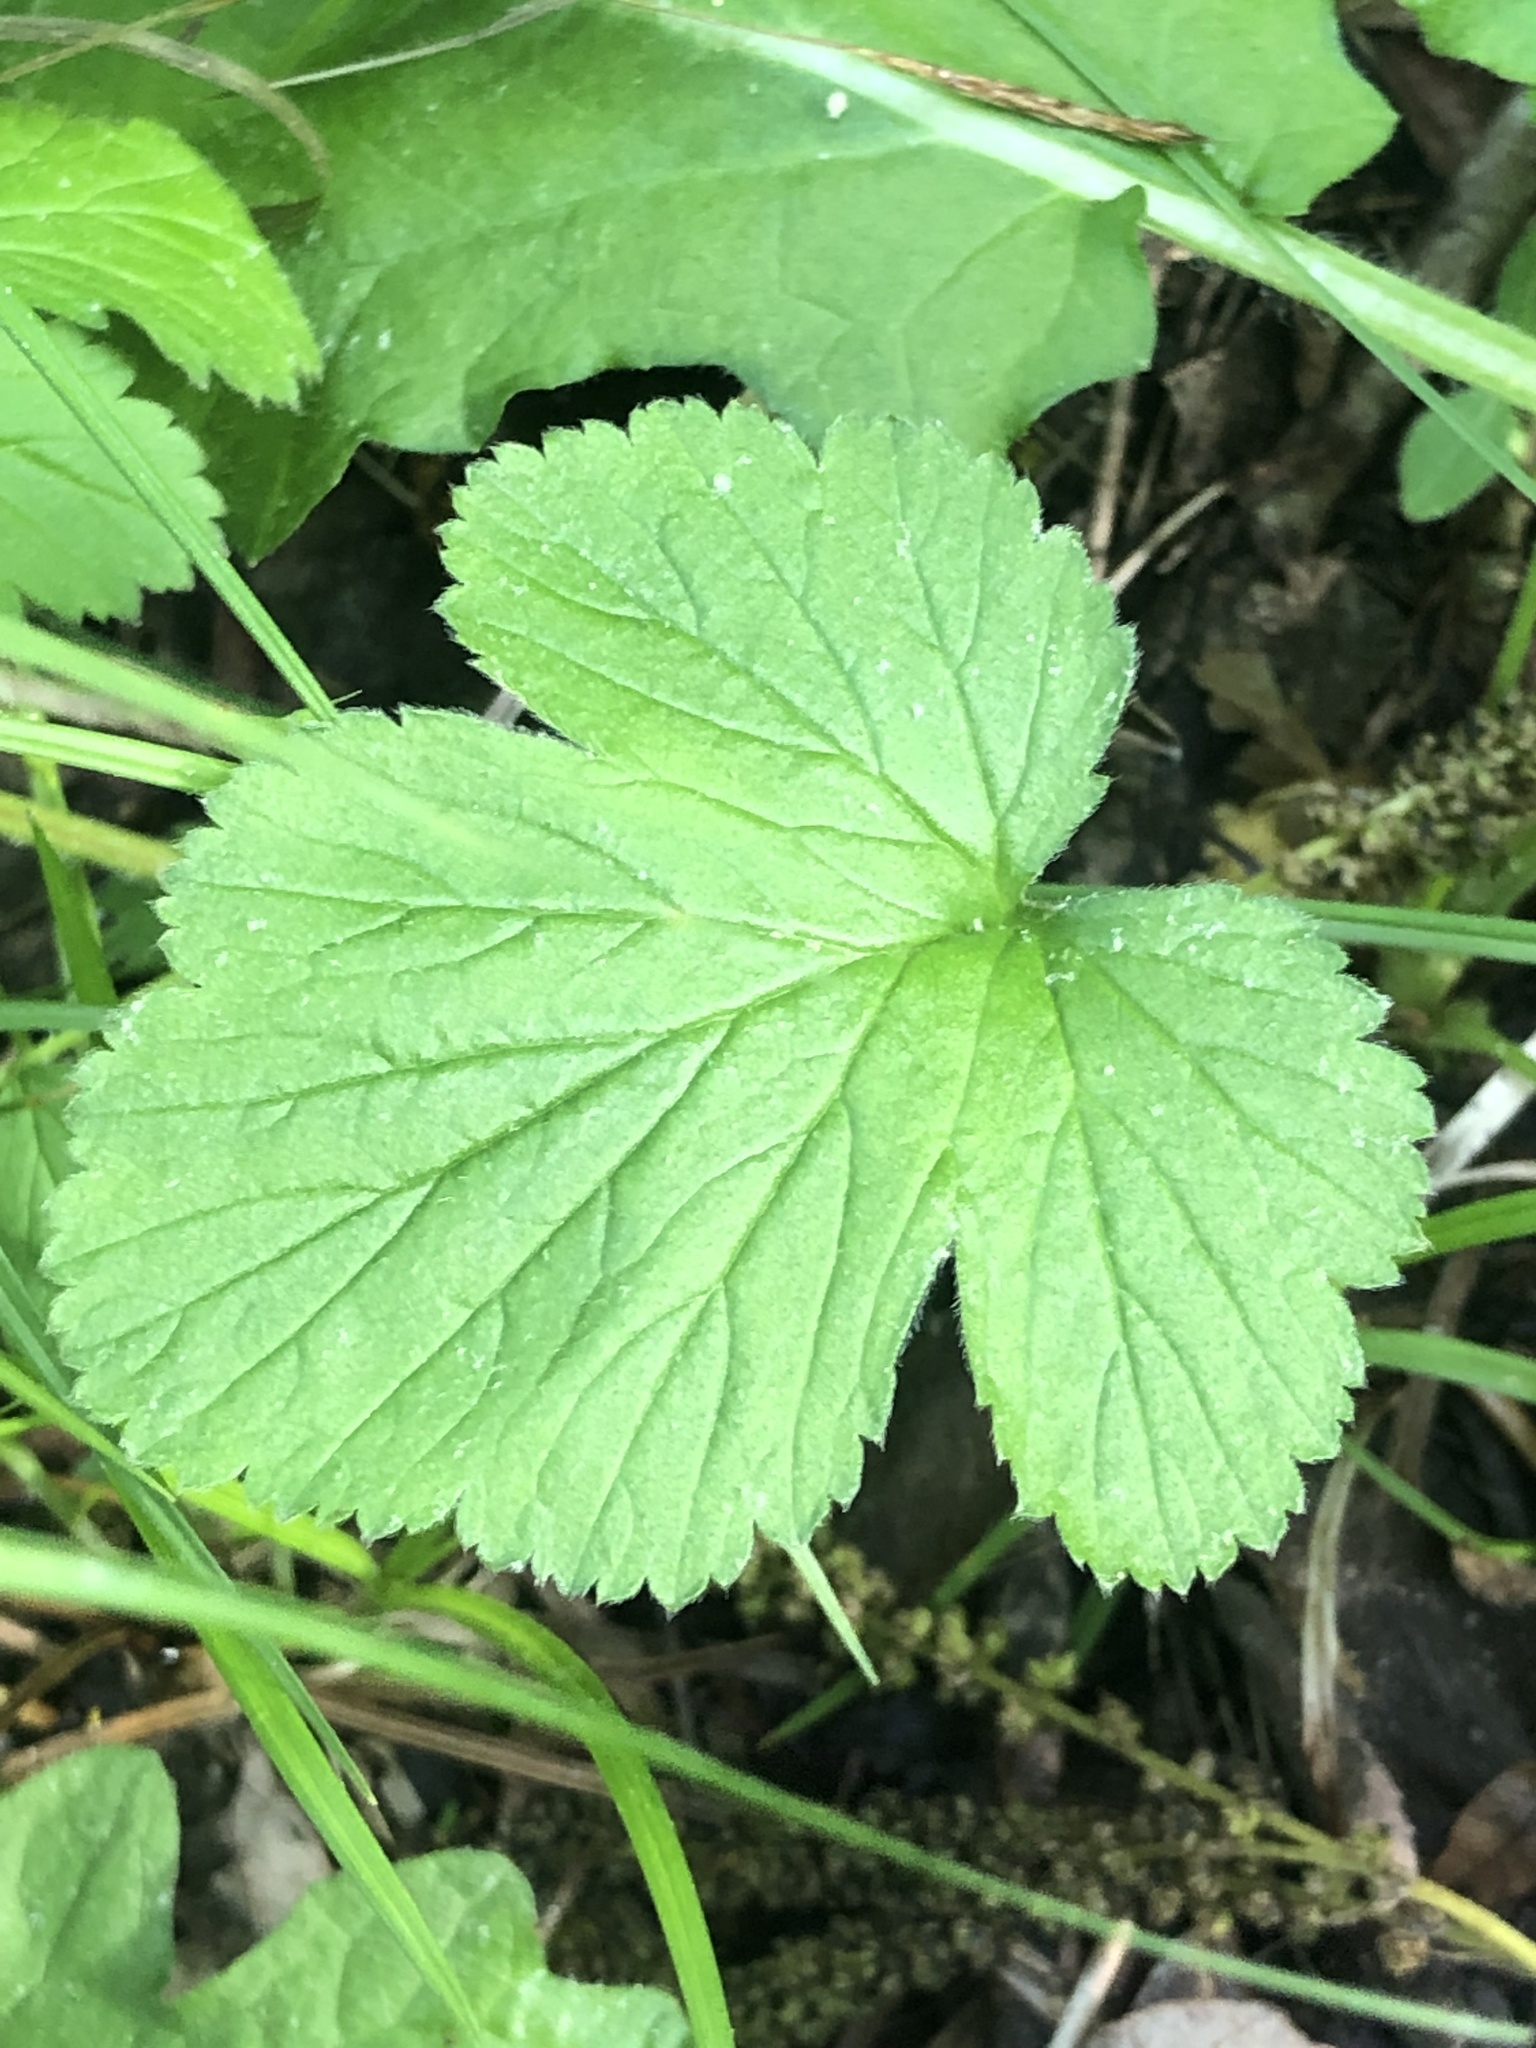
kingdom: Plantae
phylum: Tracheophyta
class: Magnoliopsida
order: Rosales
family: Rosaceae
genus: Geum
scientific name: Geum vernum
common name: Spring avens
